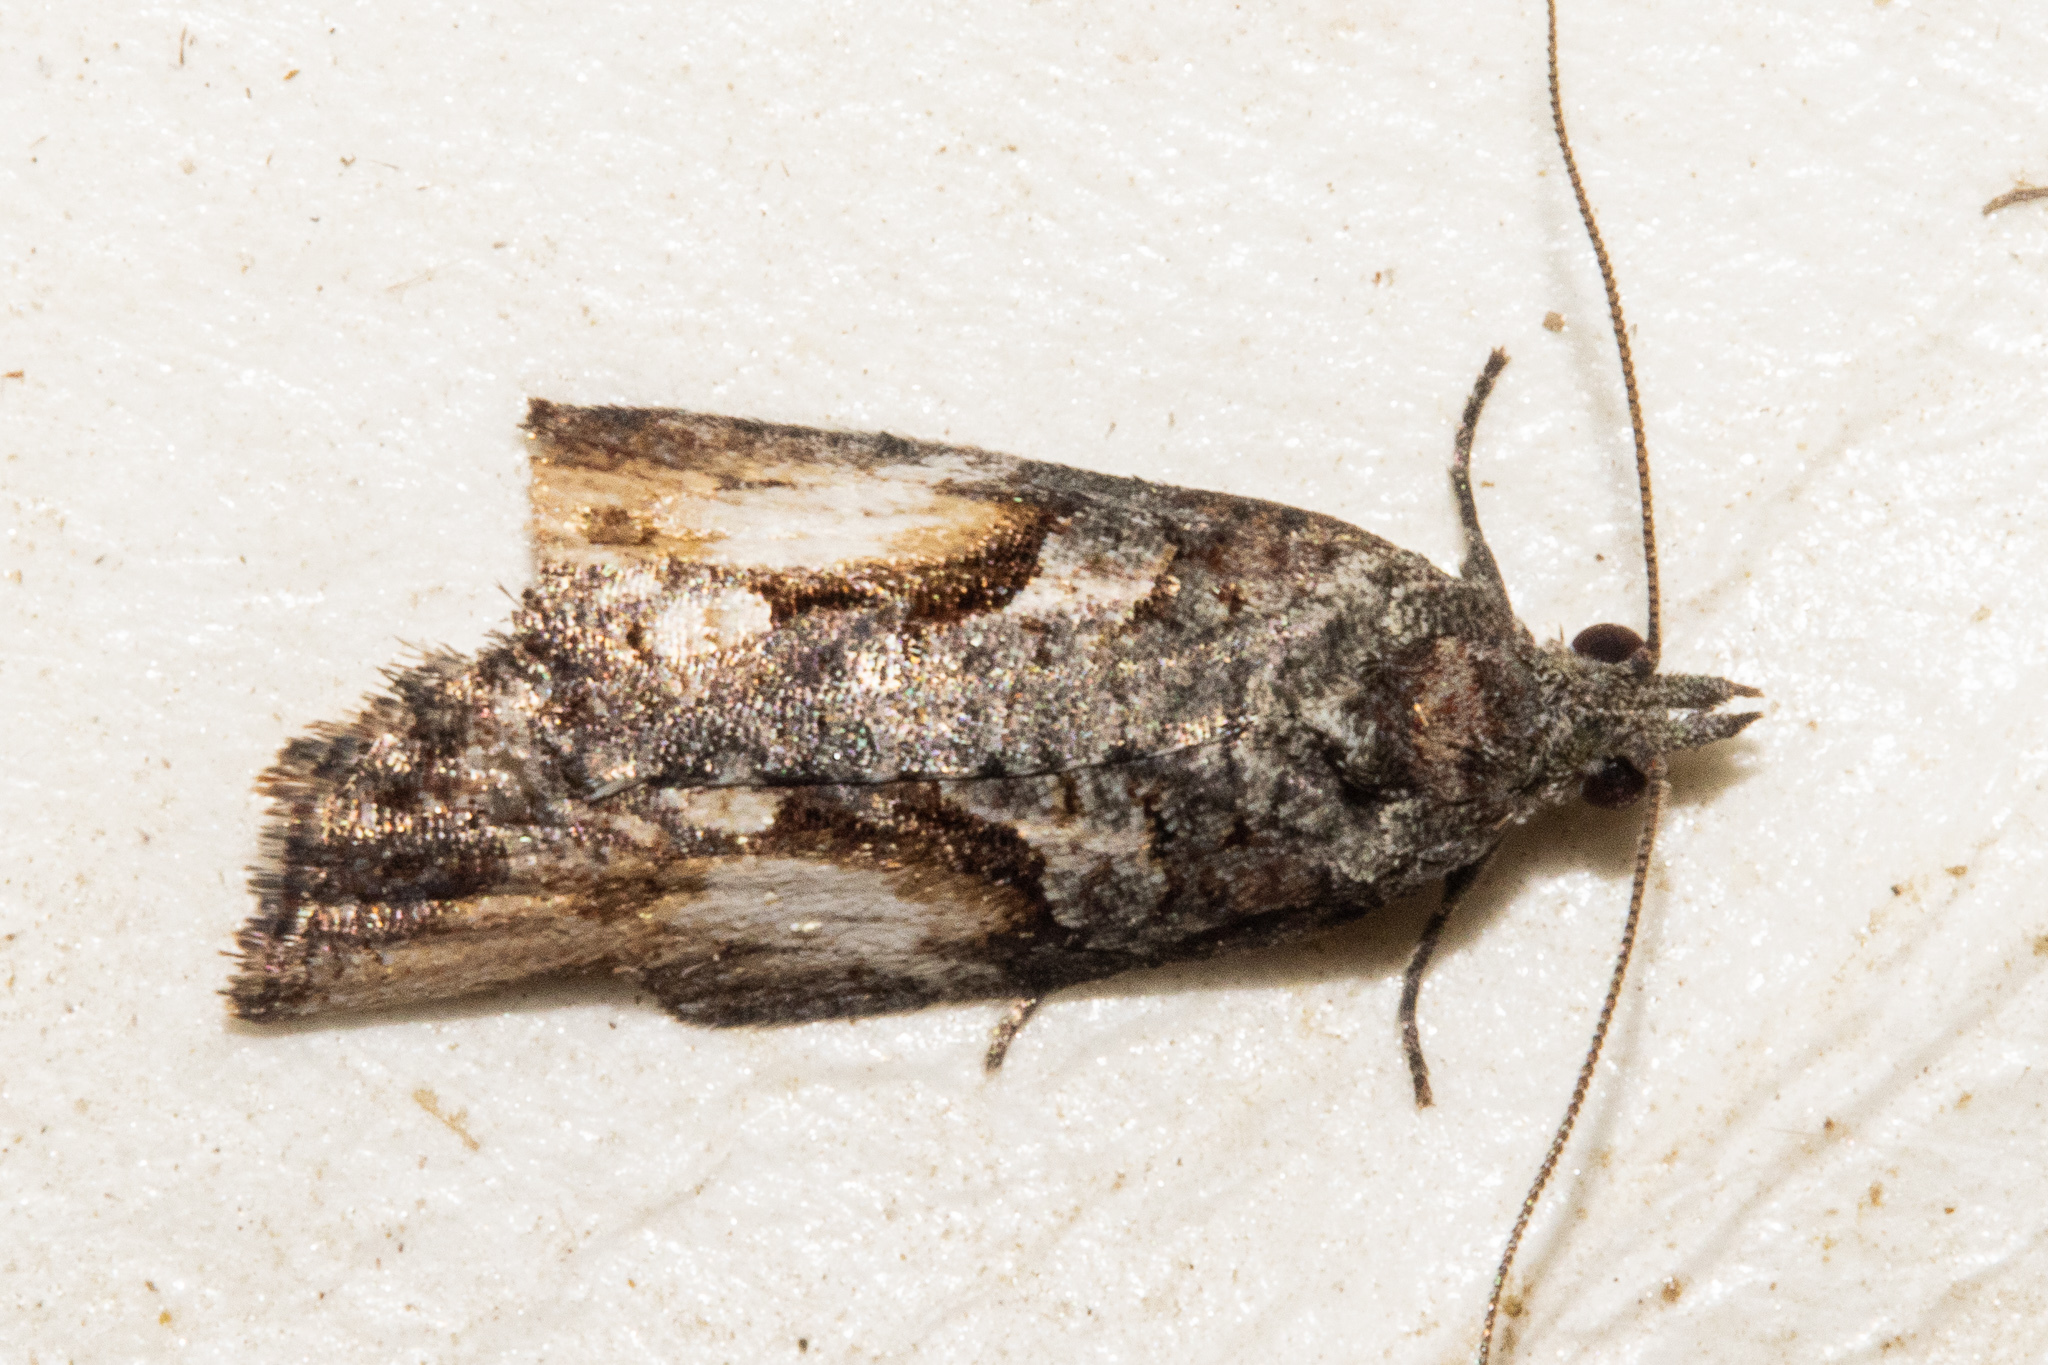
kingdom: Animalia
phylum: Arthropoda
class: Insecta
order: Lepidoptera
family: Tortricidae
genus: Harmologa
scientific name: Harmologa scoliastis
